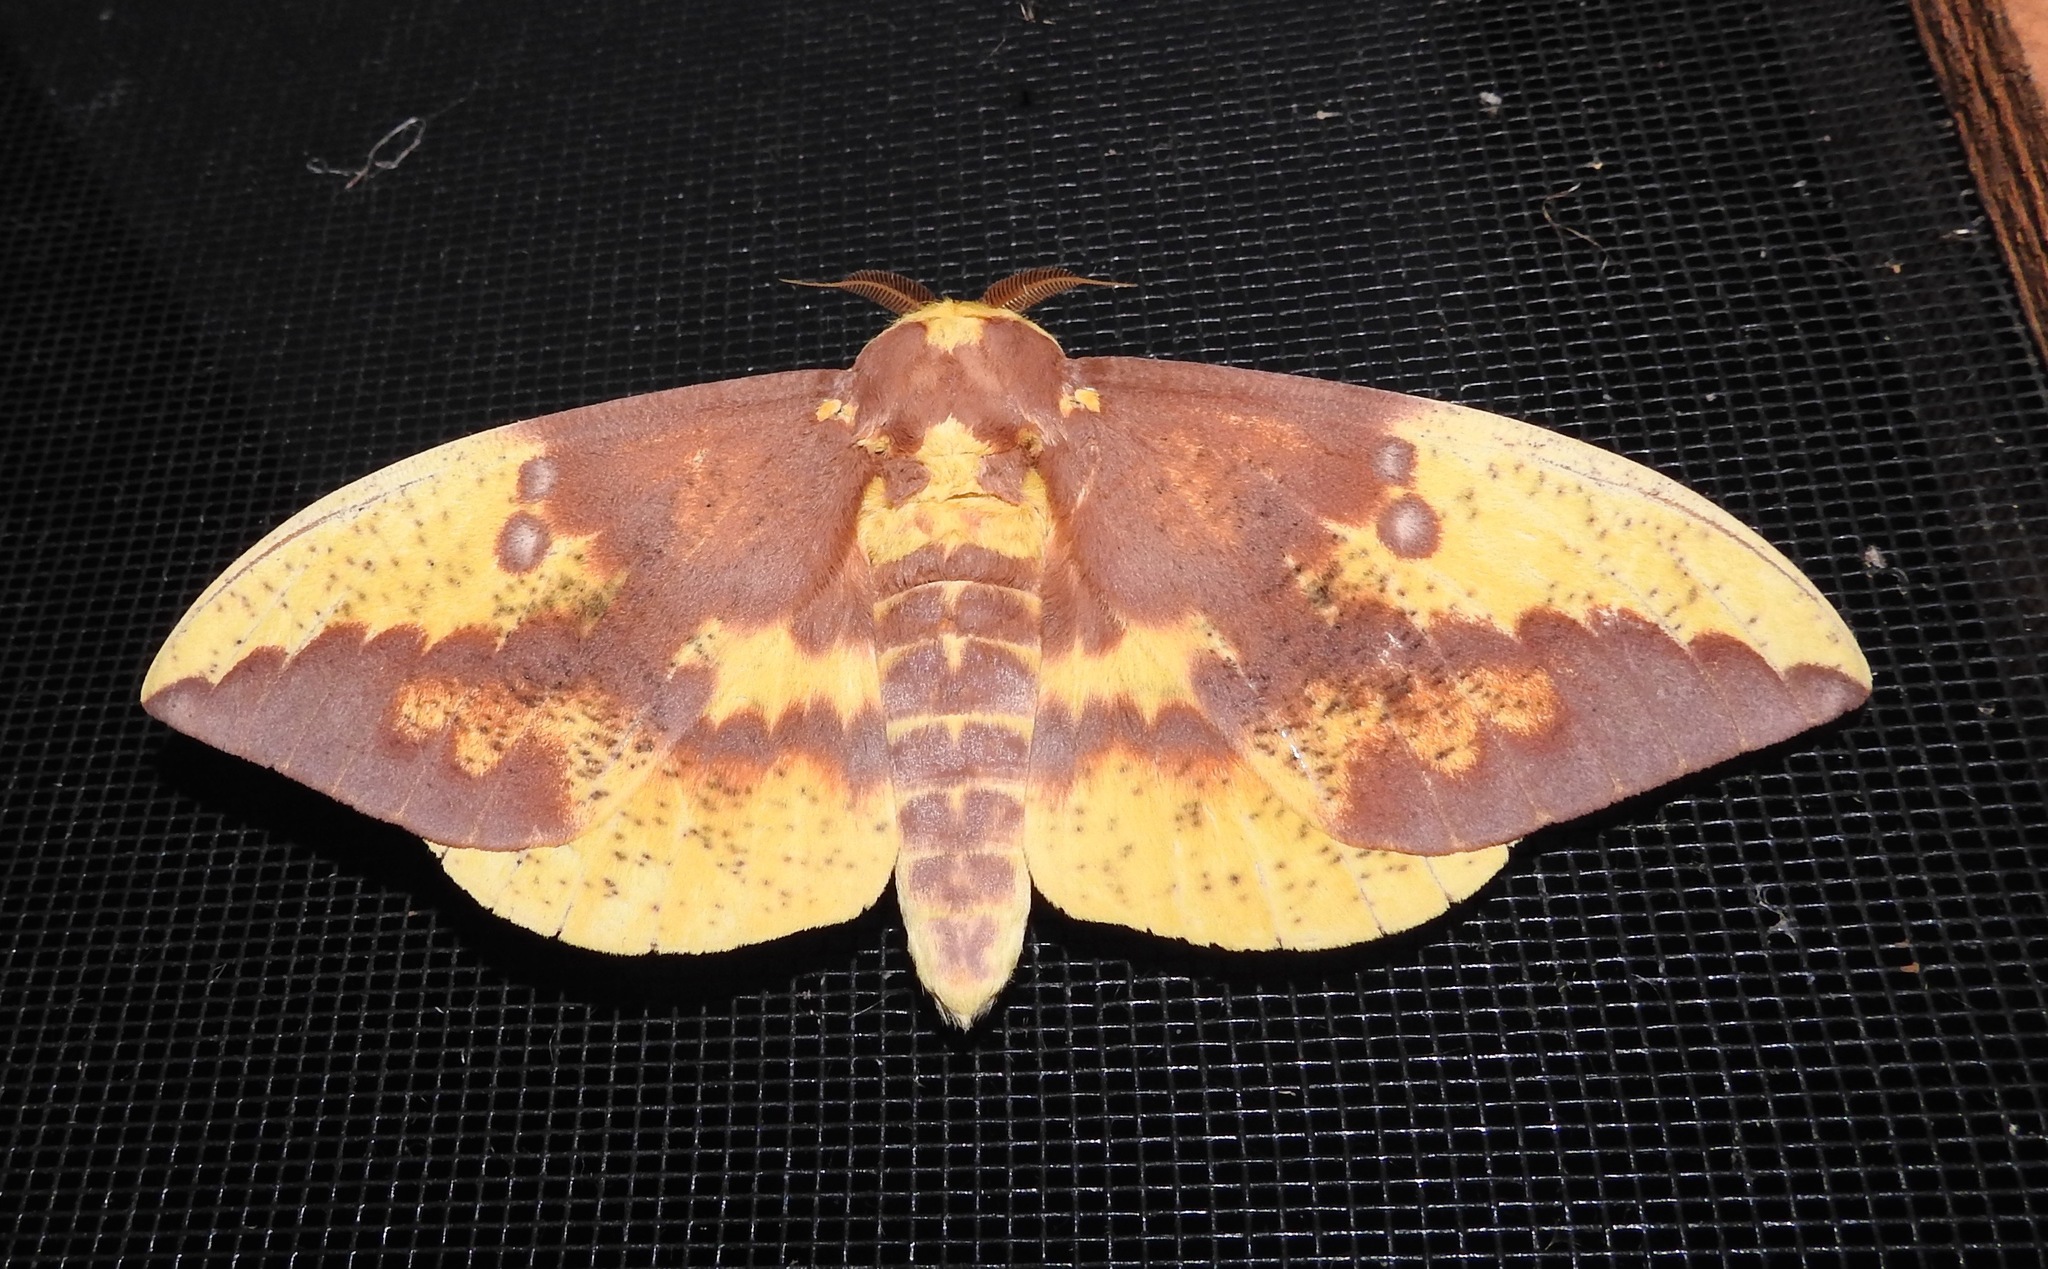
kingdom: Animalia
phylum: Arthropoda
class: Insecta
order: Lepidoptera
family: Saturniidae
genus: Eacles
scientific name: Eacles imperialis
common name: Imperial moth
